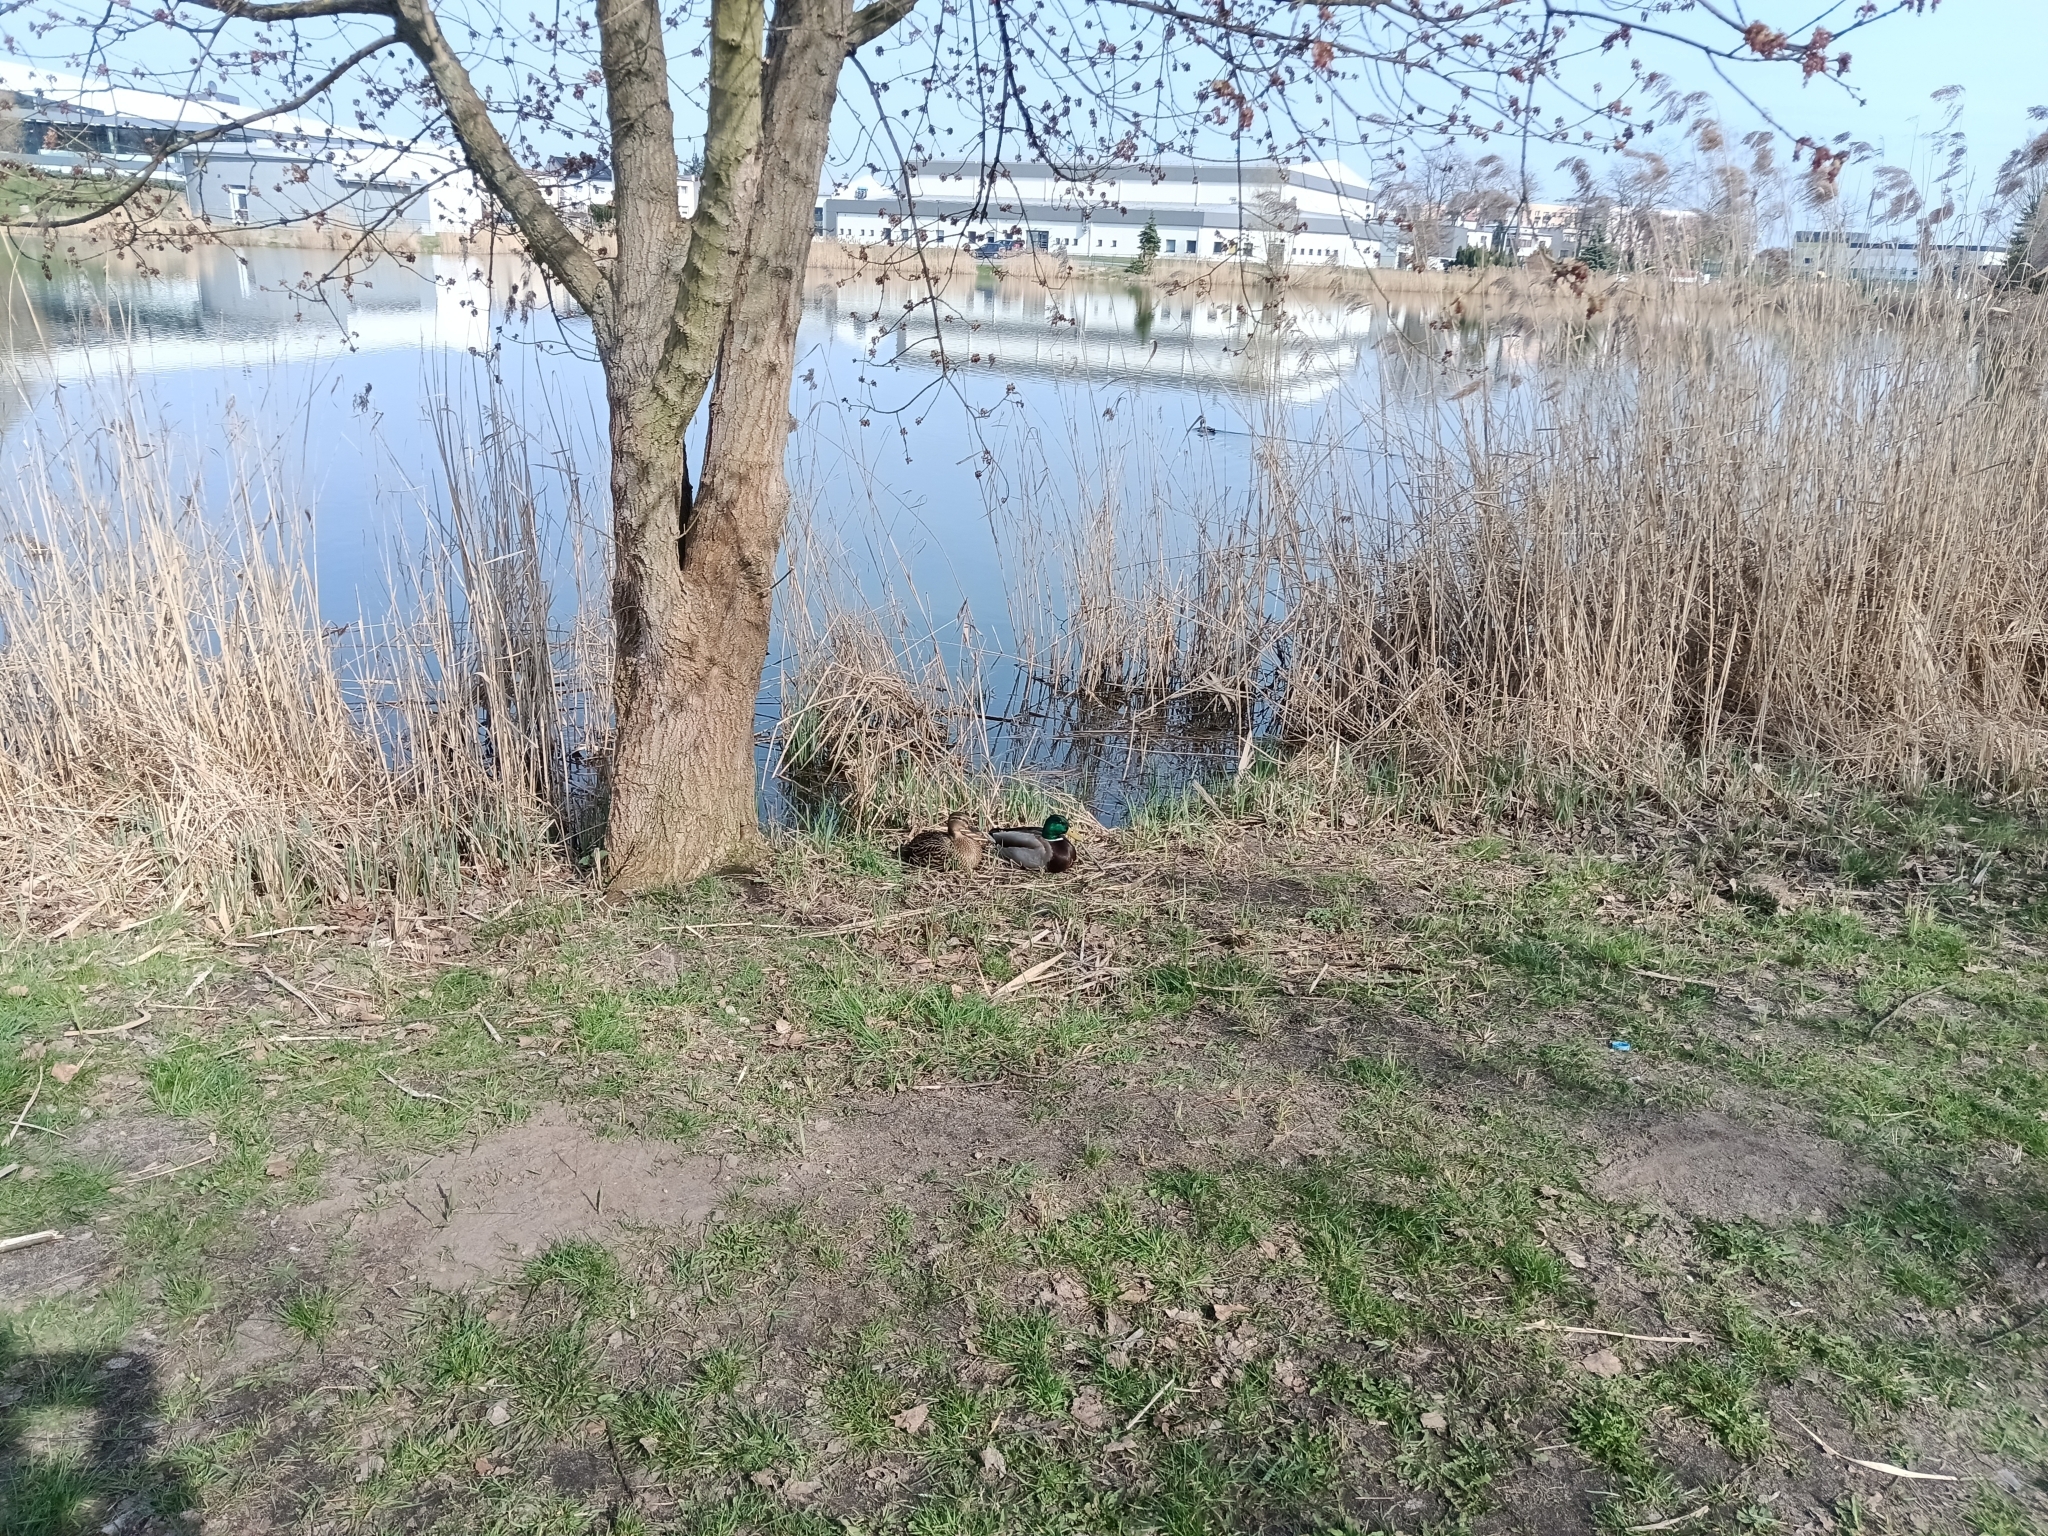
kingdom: Animalia
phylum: Chordata
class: Aves
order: Anseriformes
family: Anatidae
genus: Anas
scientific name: Anas platyrhynchos
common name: Mallard
